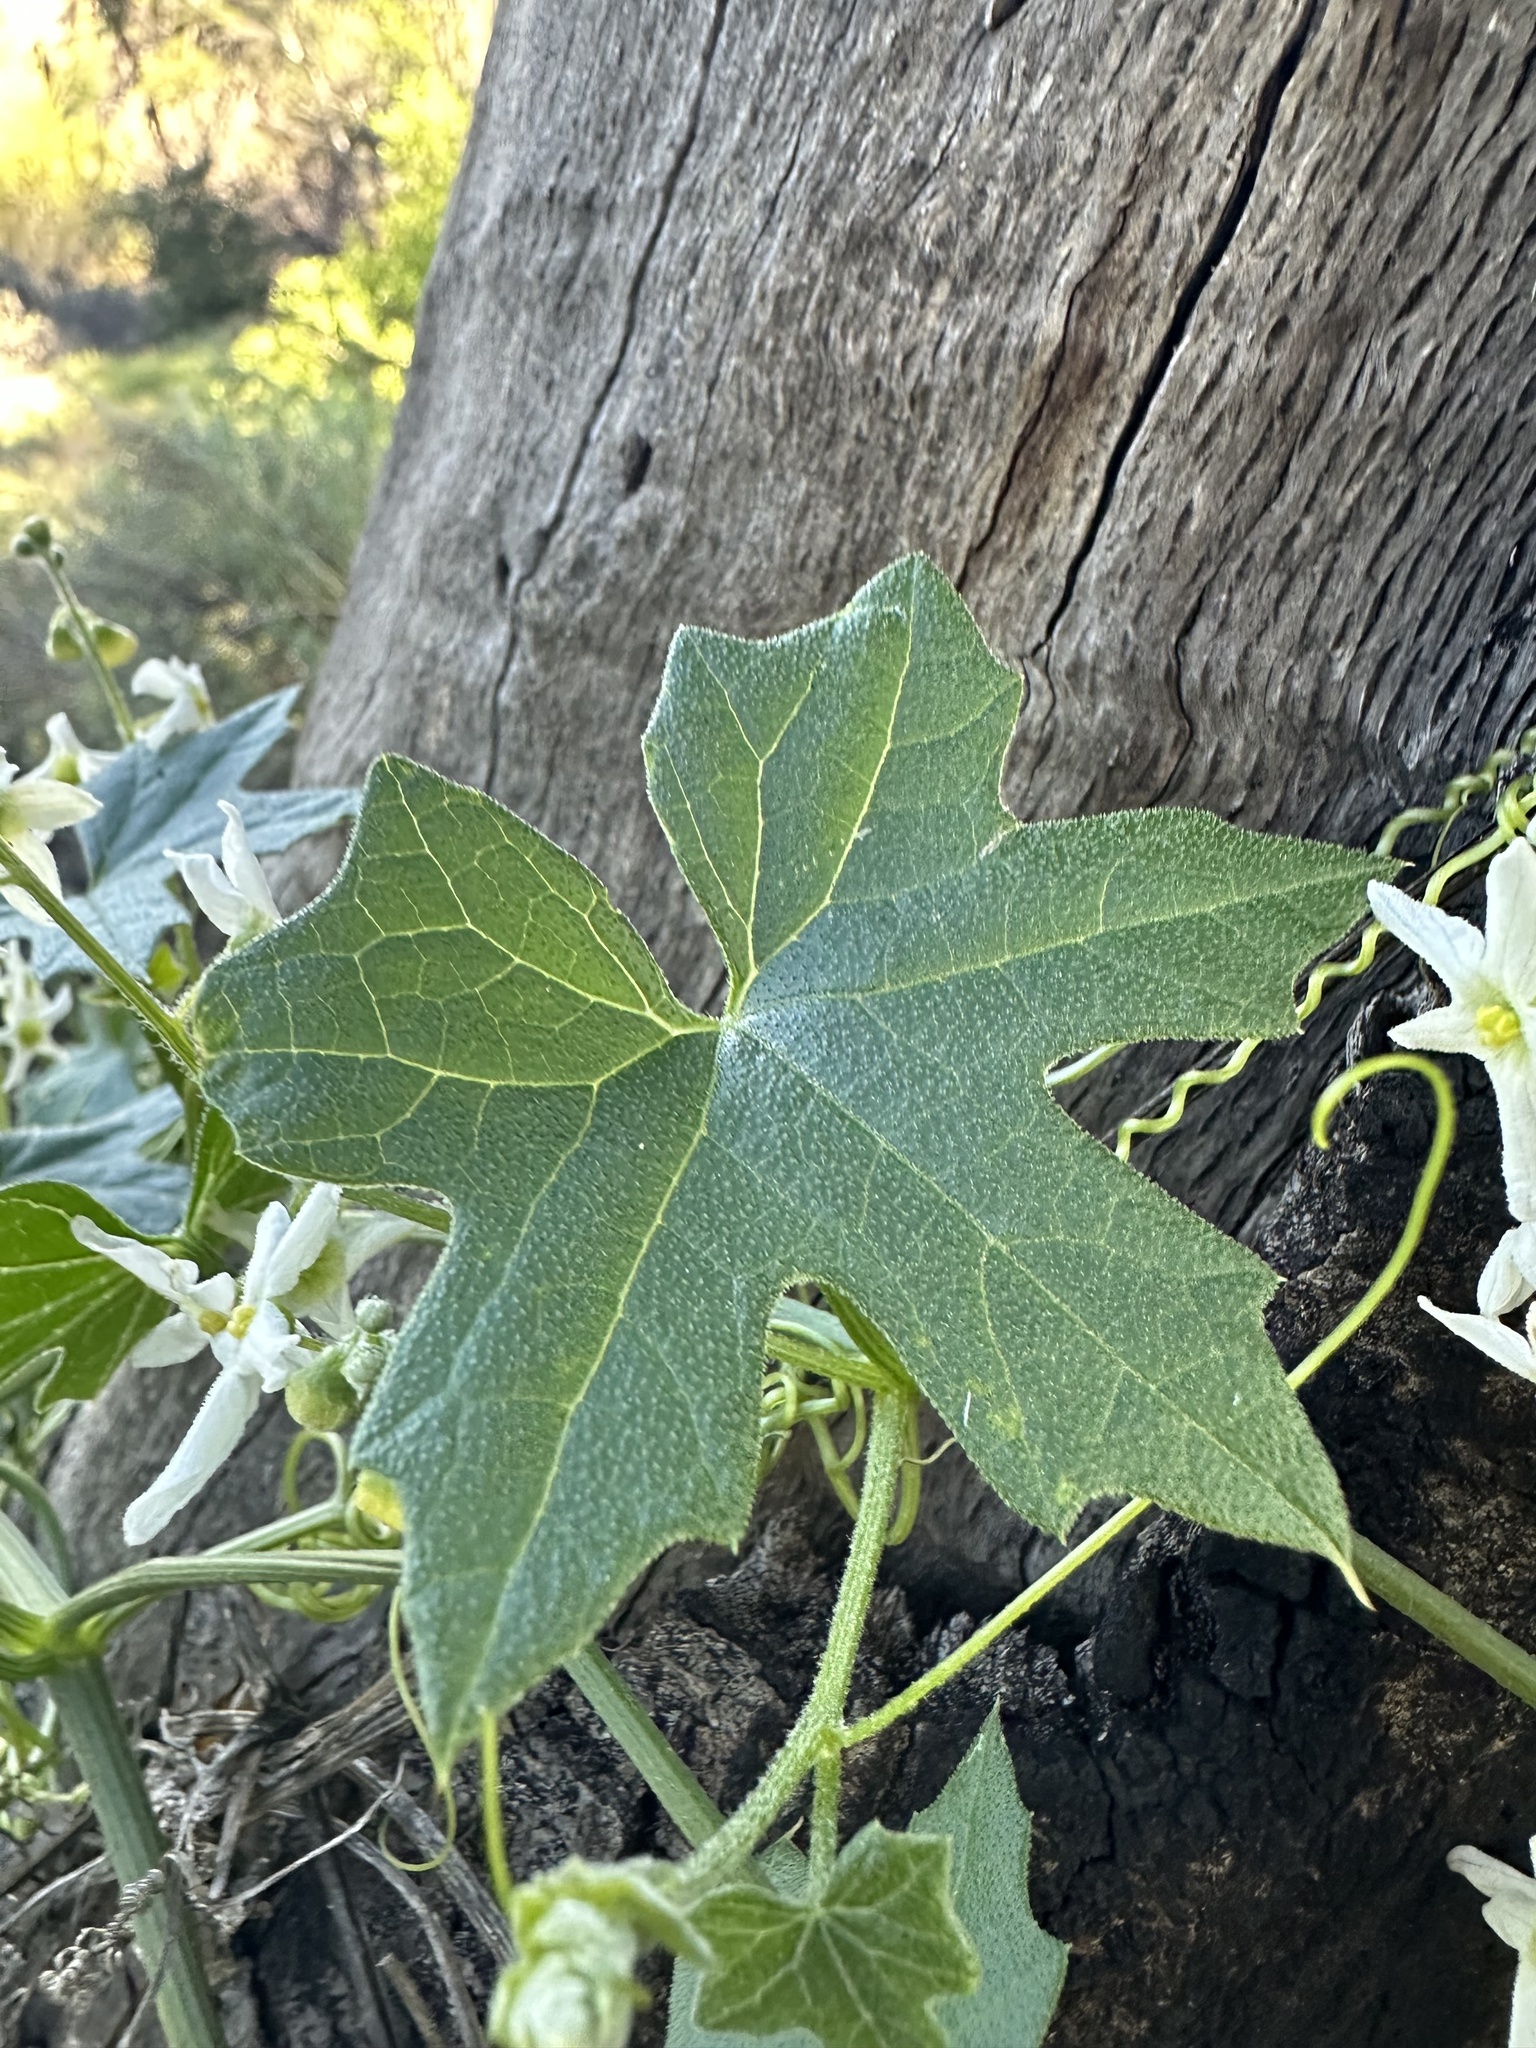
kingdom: Plantae
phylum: Tracheophyta
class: Magnoliopsida
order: Cucurbitales
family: Cucurbitaceae
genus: Marah
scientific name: Marah macrocarpa
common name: Cucamonga manroot
